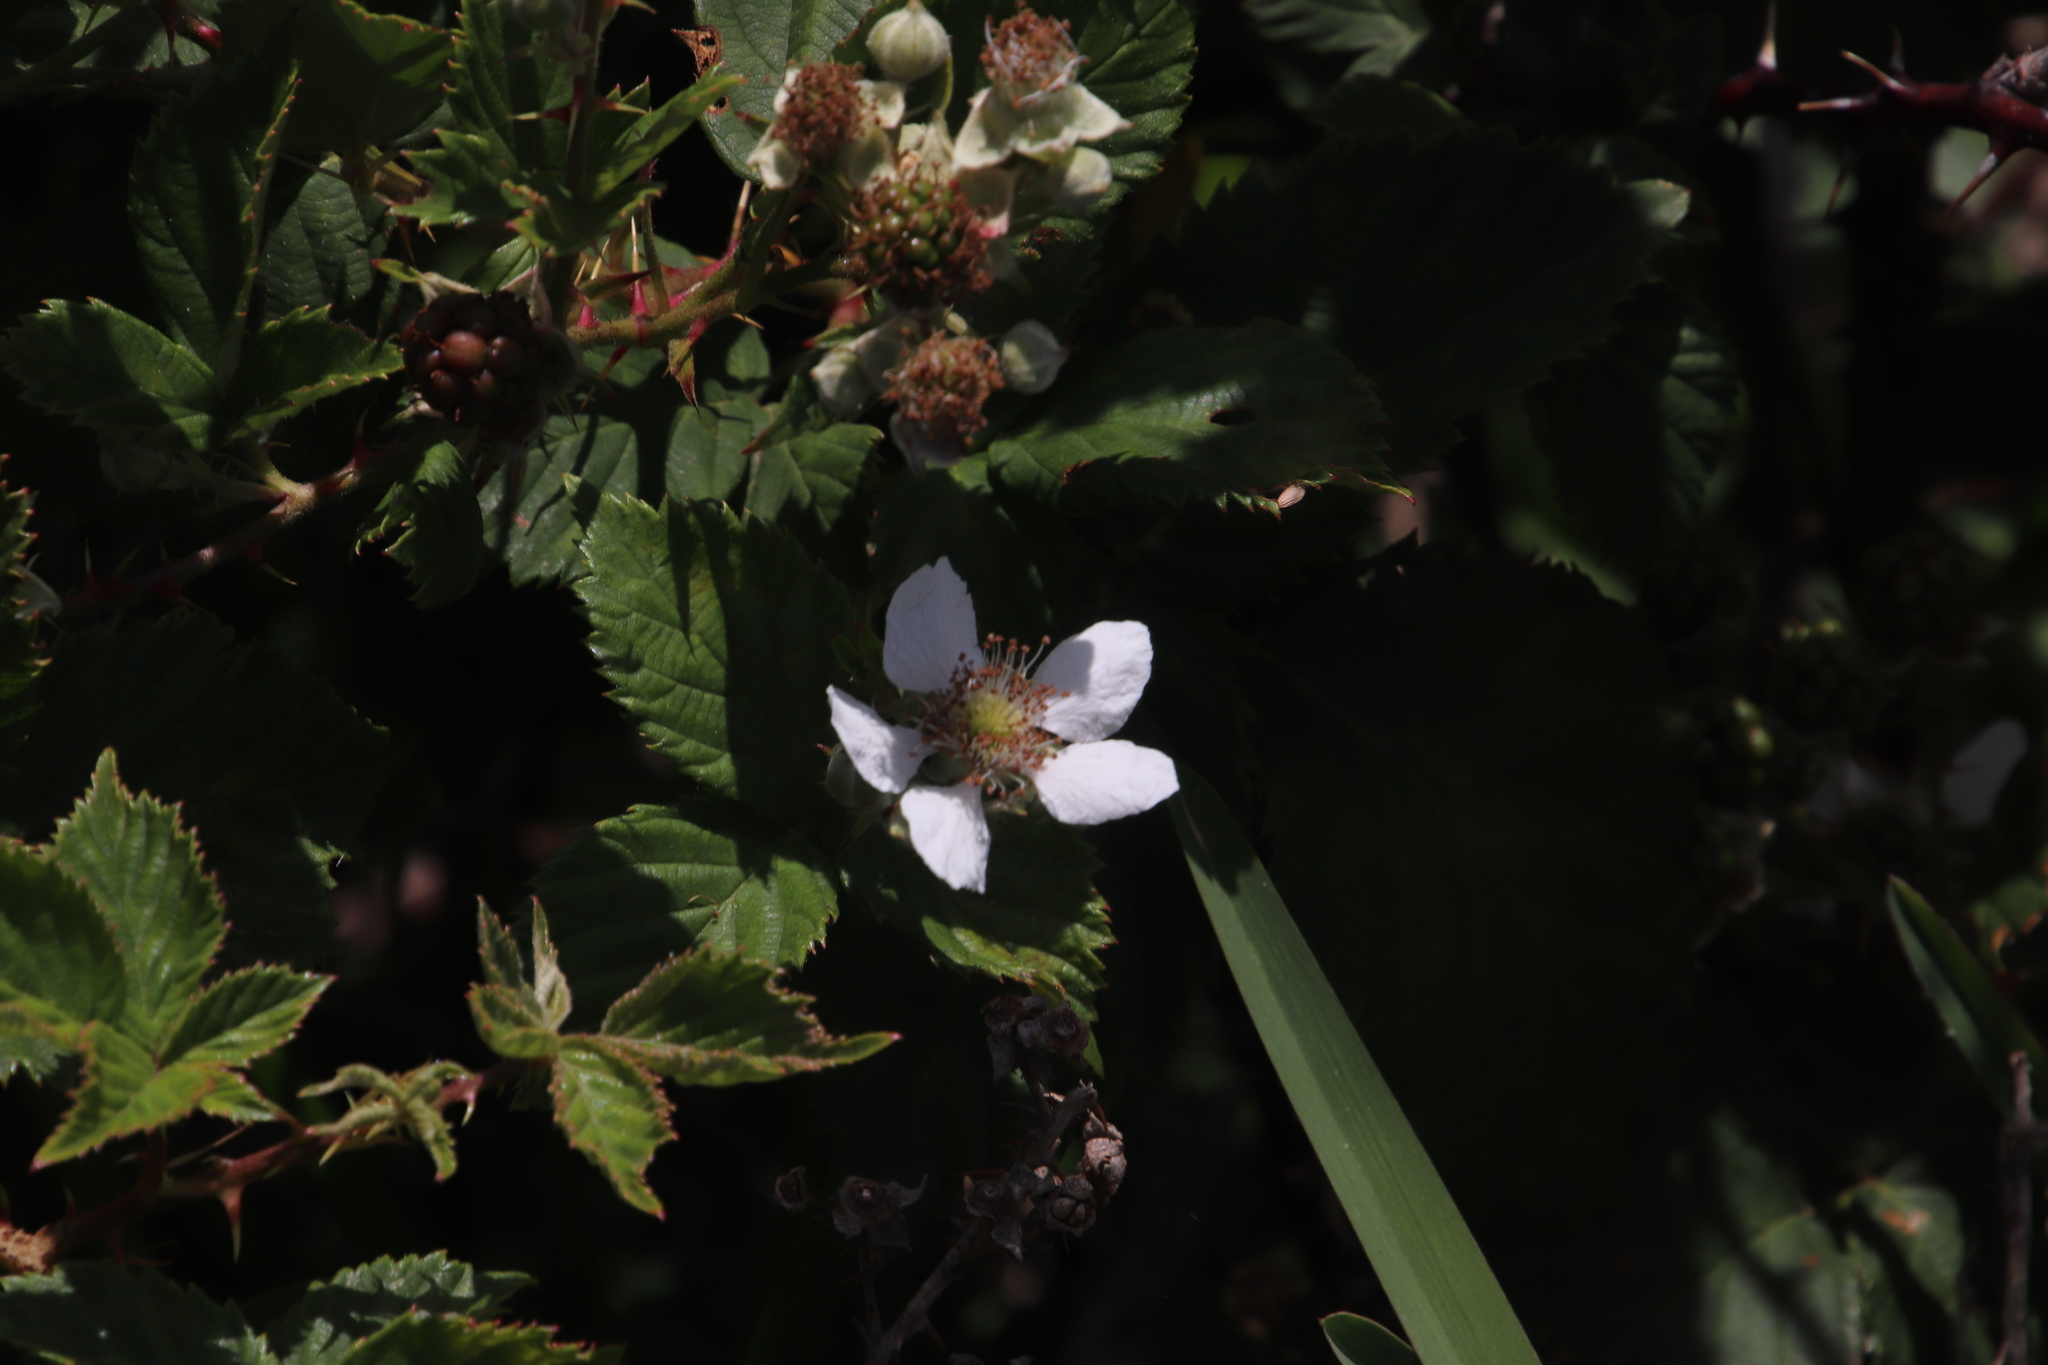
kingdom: Plantae
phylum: Tracheophyta
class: Magnoliopsida
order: Rosales
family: Rosaceae
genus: Rubus
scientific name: Rubus affinis
